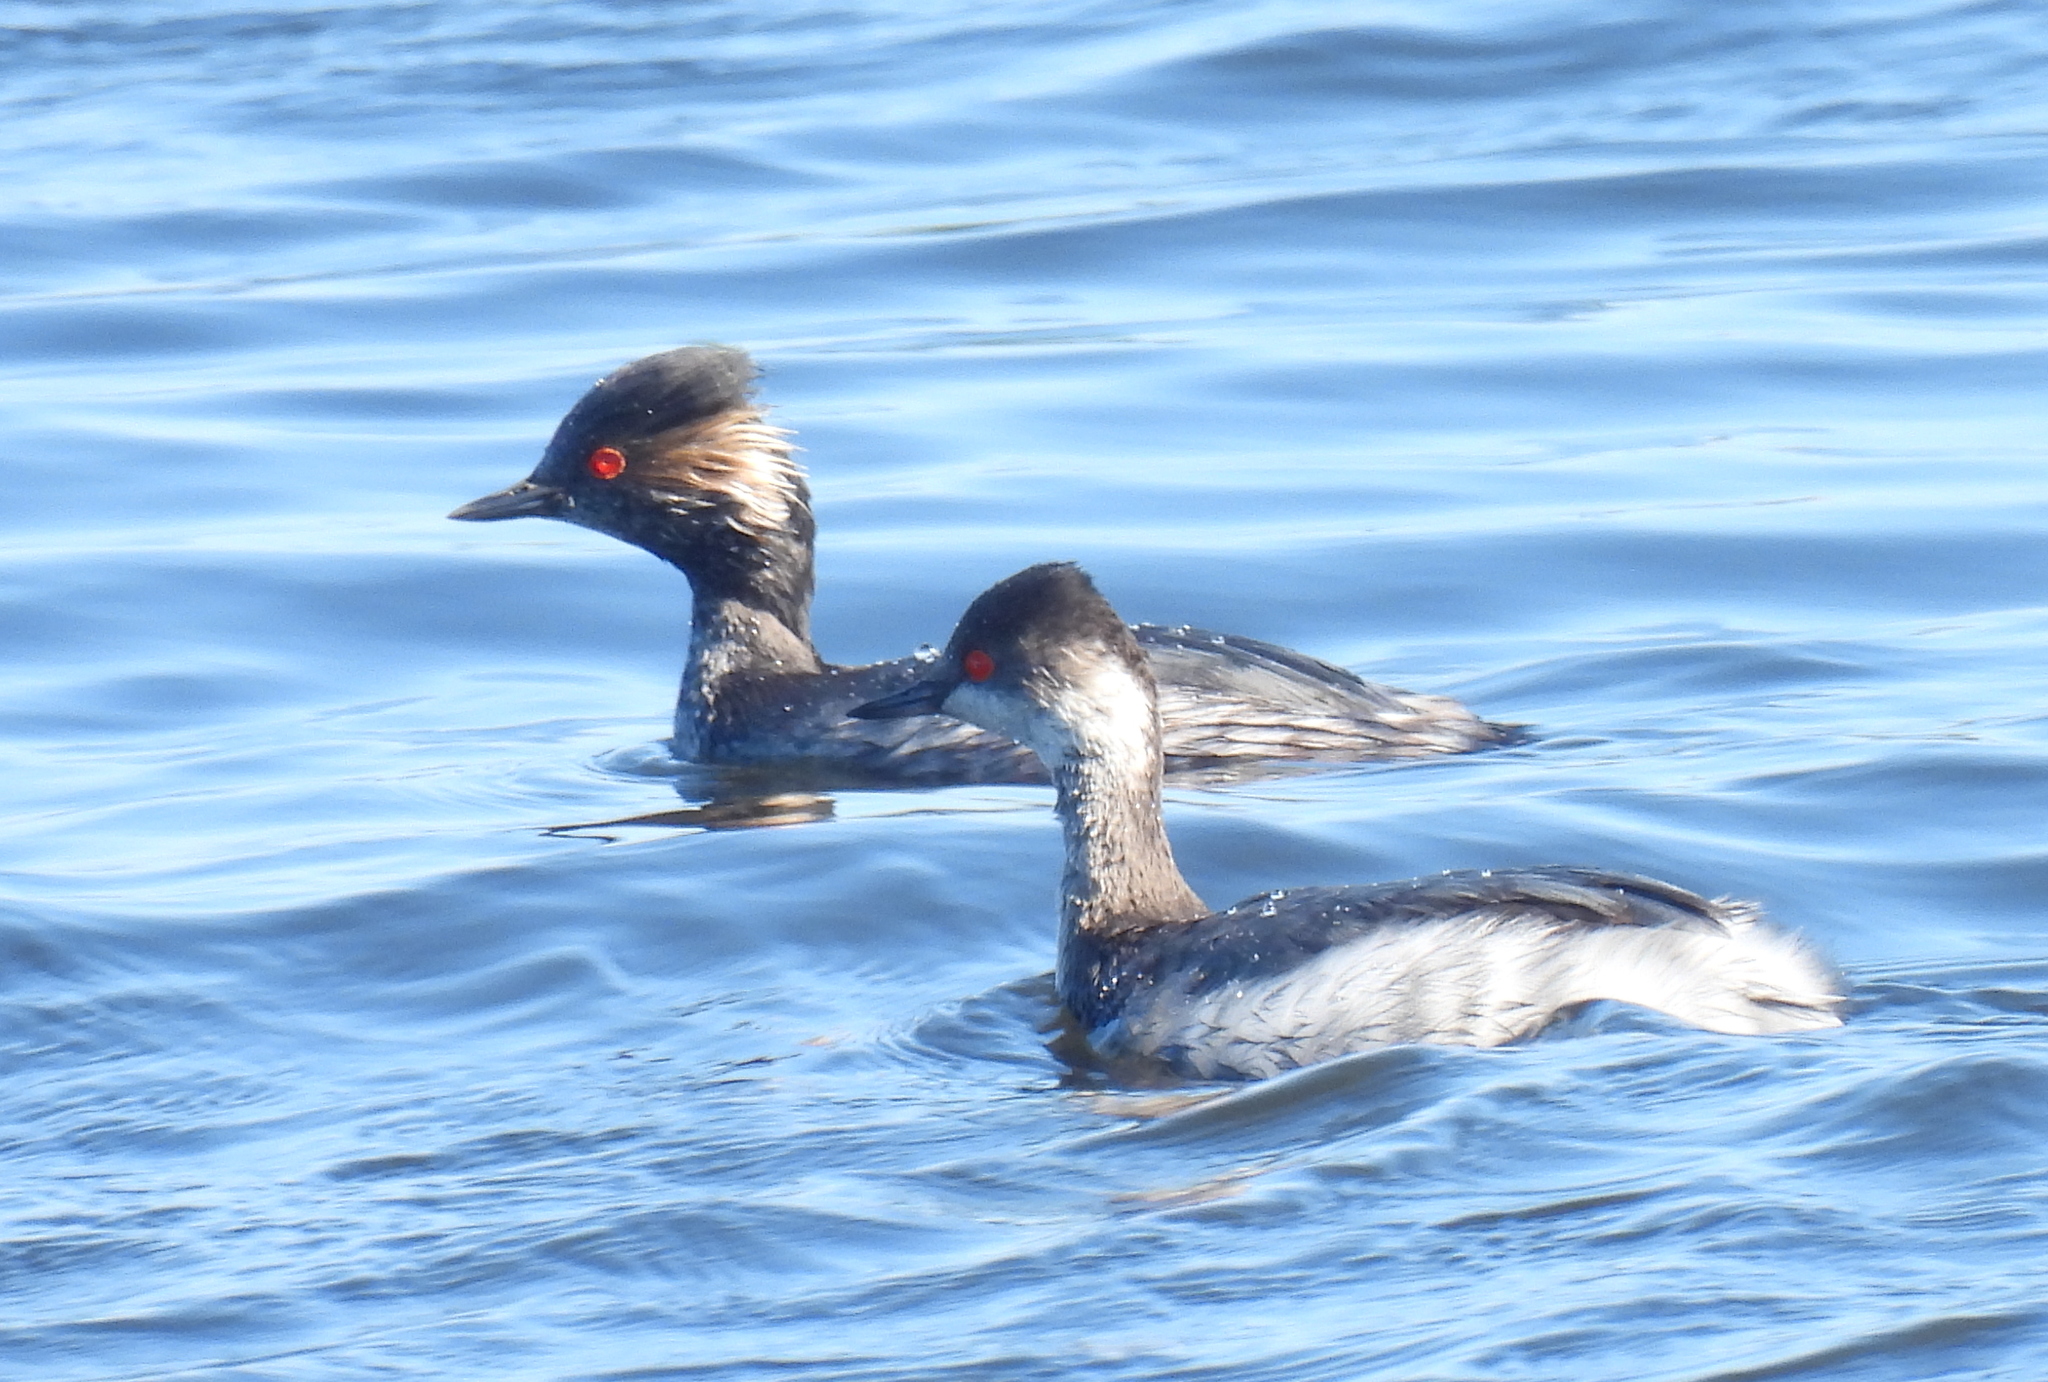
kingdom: Animalia
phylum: Chordata
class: Aves
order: Podicipediformes
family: Podicipedidae
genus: Podiceps
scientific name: Podiceps nigricollis
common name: Black-necked grebe
